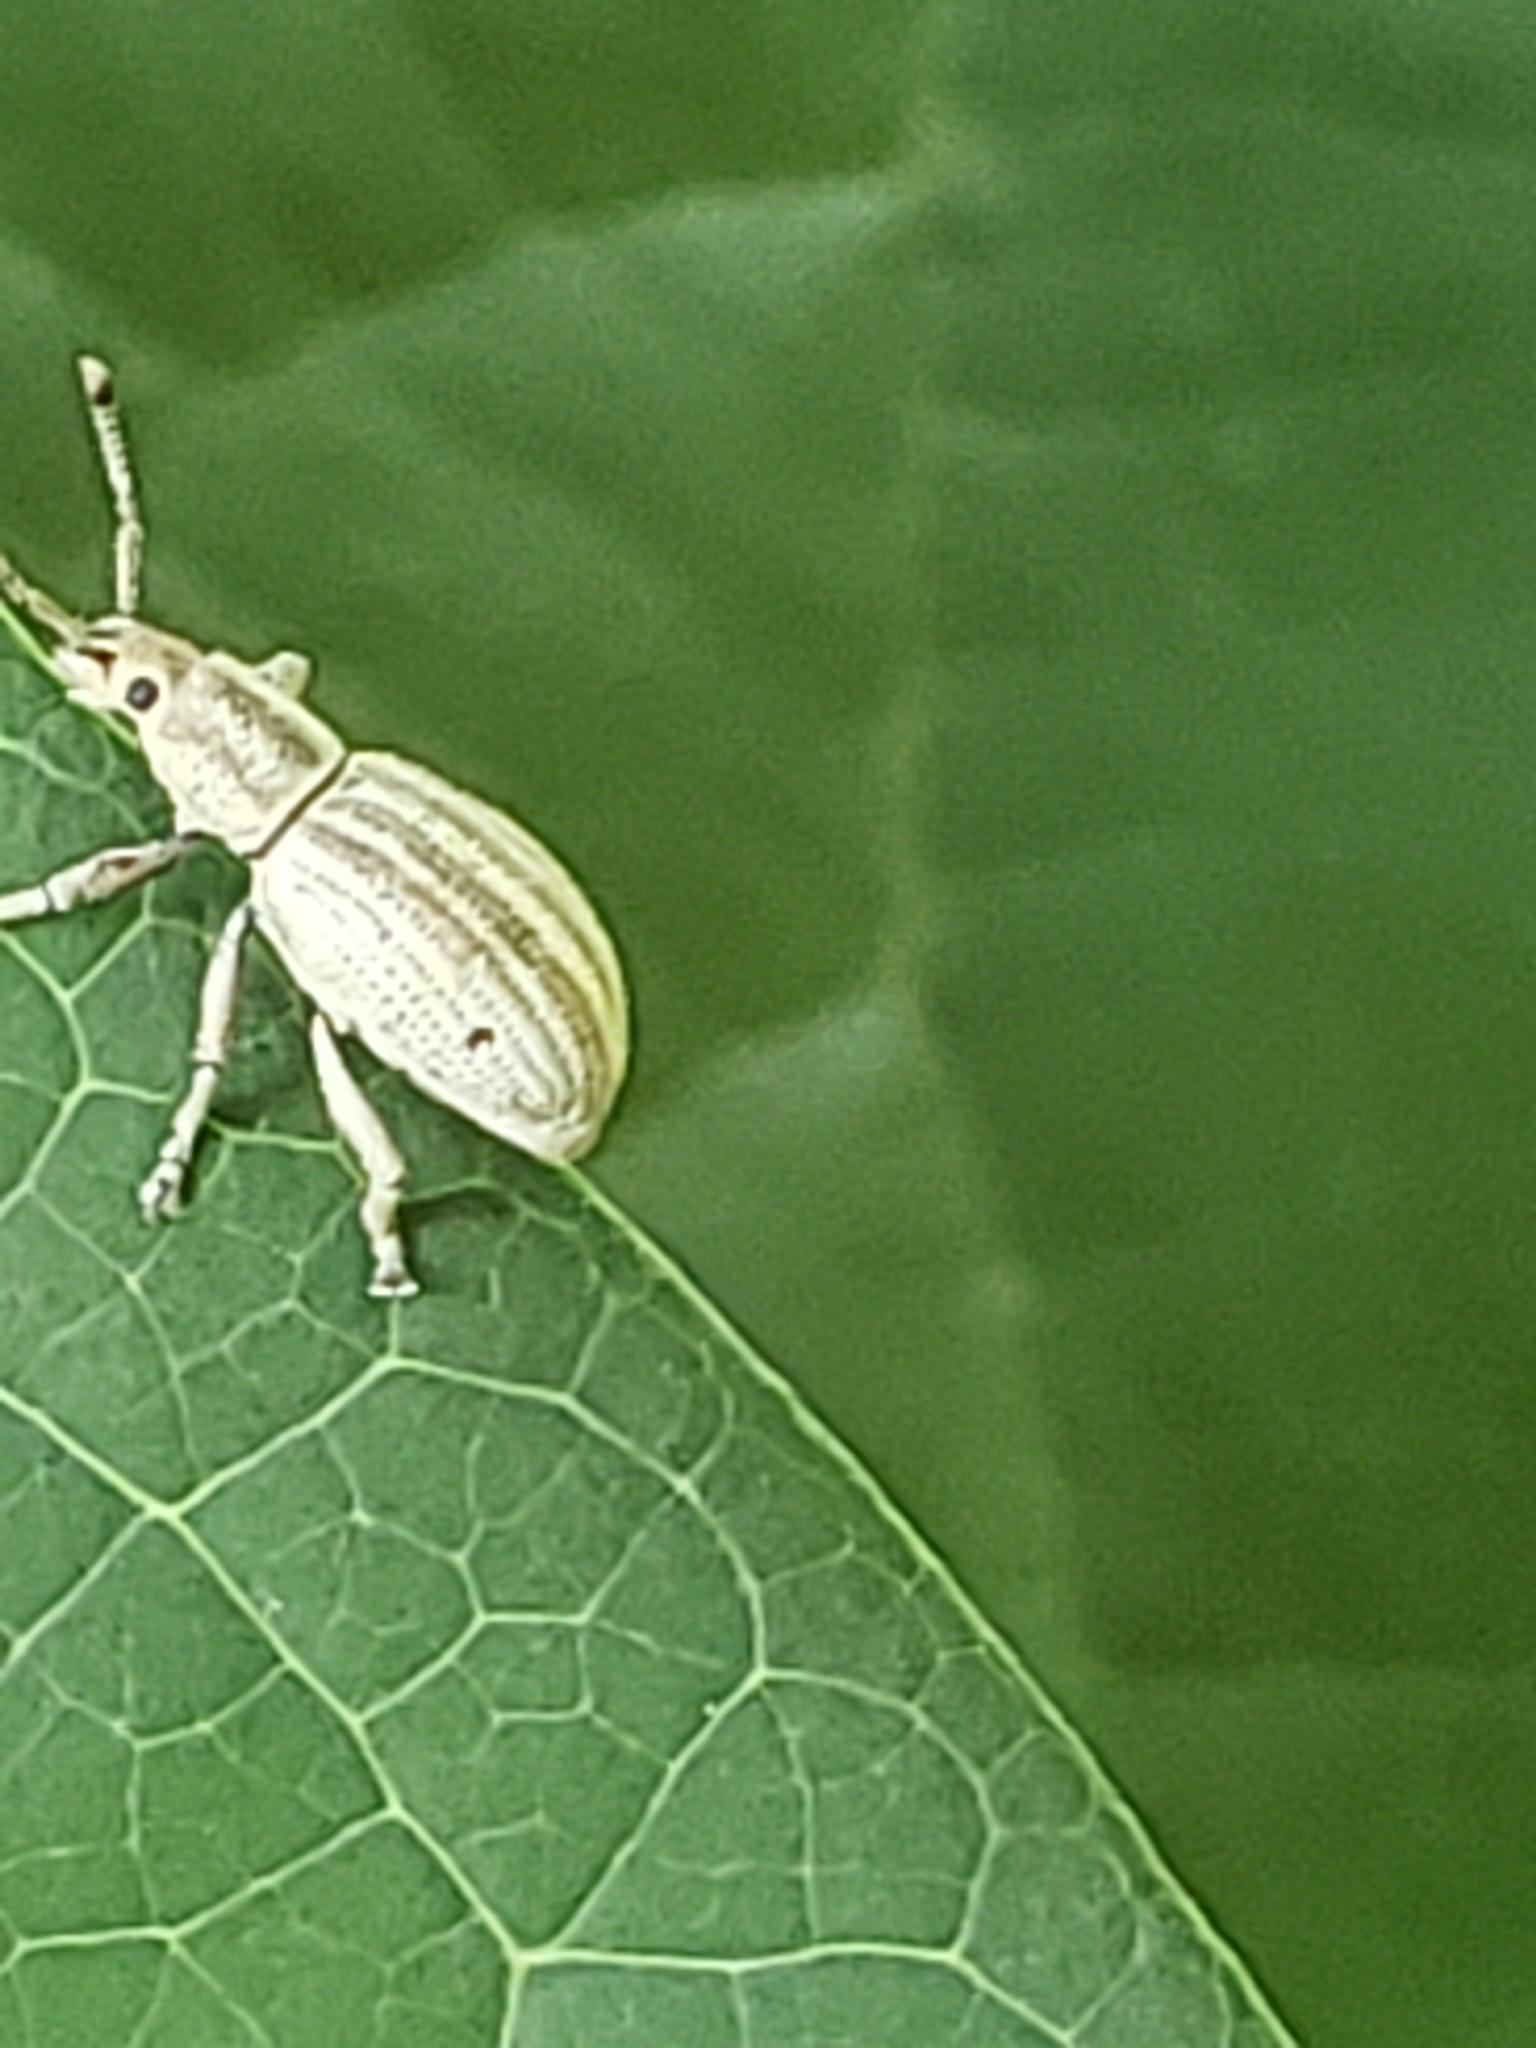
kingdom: Animalia
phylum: Arthropoda
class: Insecta
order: Coleoptera
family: Curculionidae
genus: Aphrastus
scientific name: Aphrastus taeniatus
